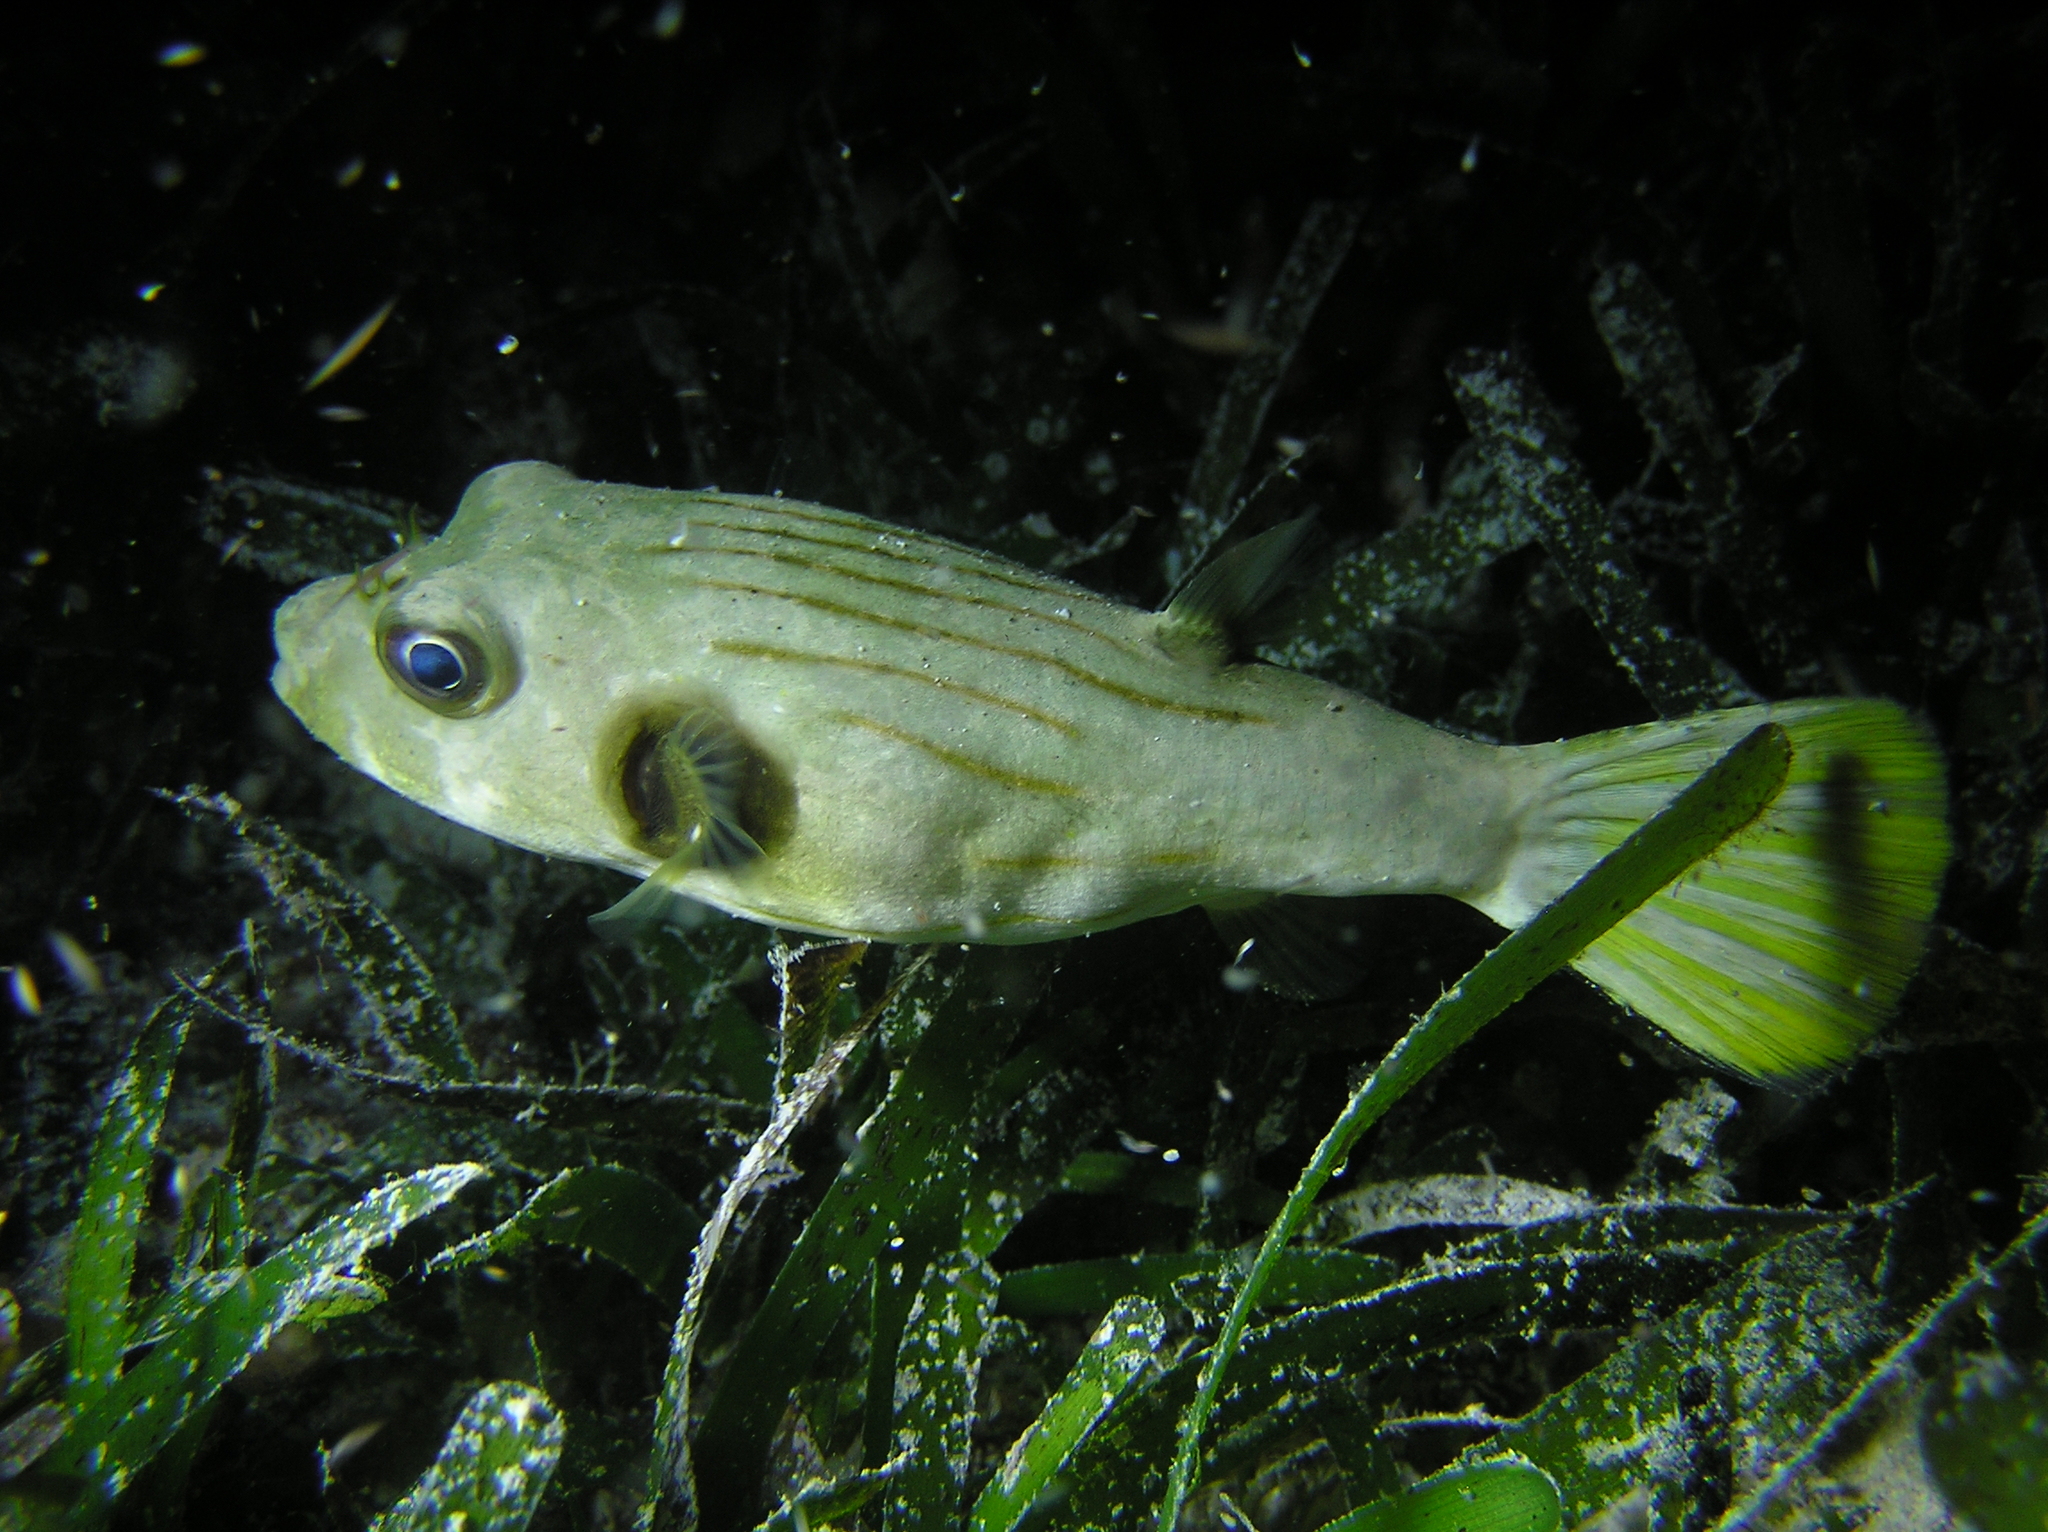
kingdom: Animalia
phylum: Chordata
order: Tetraodontiformes
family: Tetraodontidae
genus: Arothron
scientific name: Arothron manilensis
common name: Narrow-lined puffer
